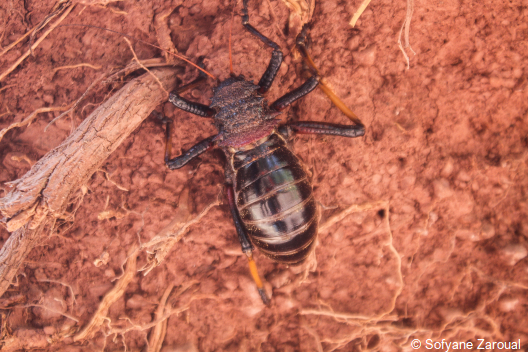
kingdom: Animalia
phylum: Arthropoda
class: Insecta
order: Orthoptera
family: Tettigoniidae
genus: Eugaster
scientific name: Eugaster spinulosa
